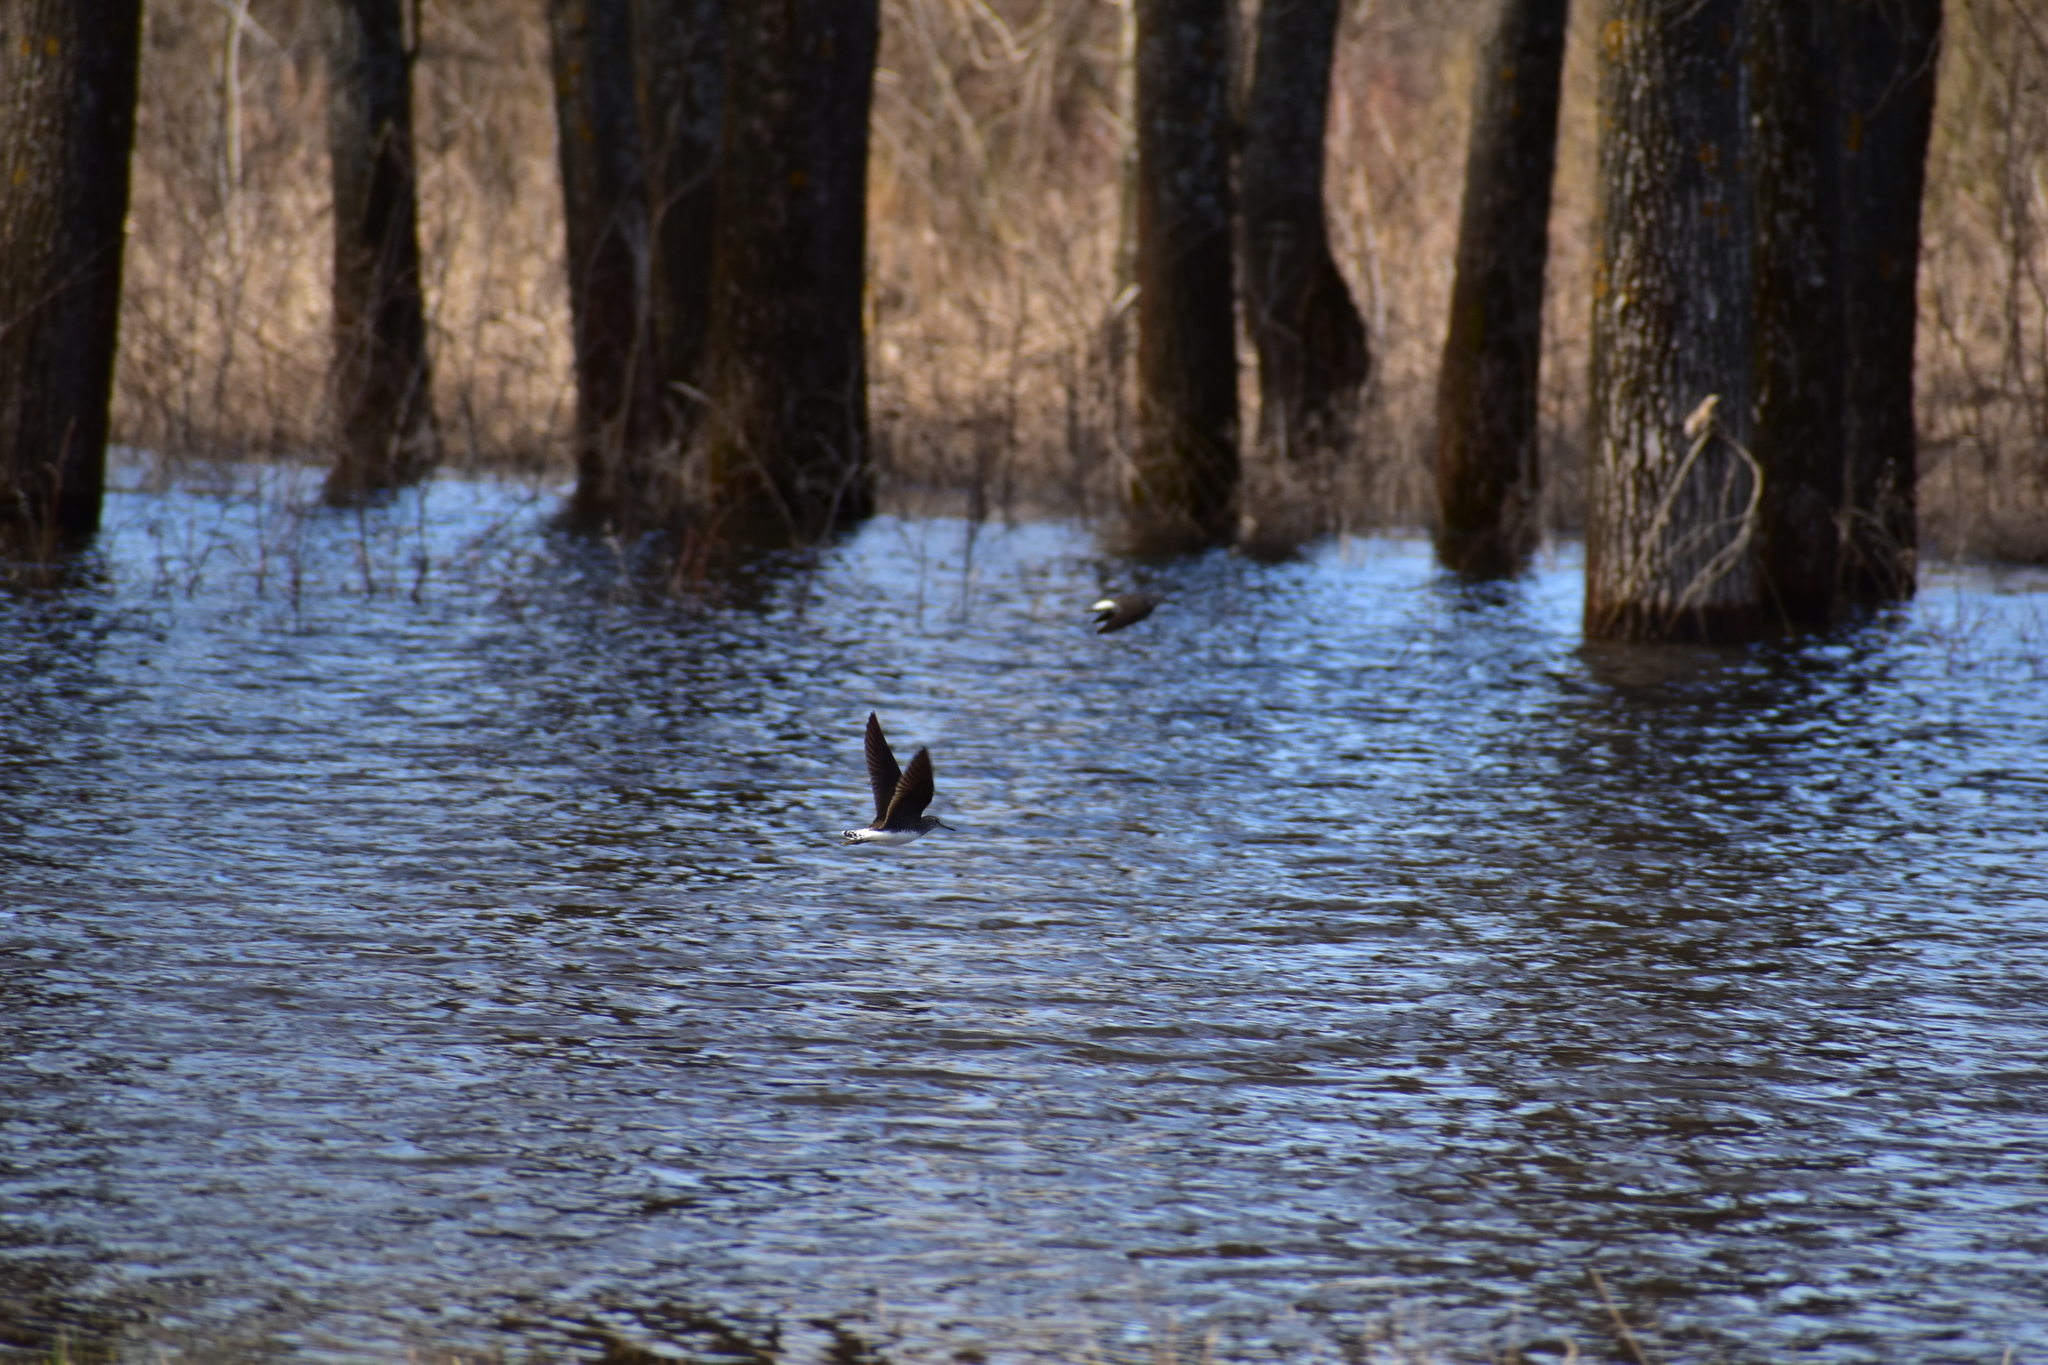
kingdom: Animalia
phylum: Chordata
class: Aves
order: Charadriiformes
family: Scolopacidae
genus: Tringa
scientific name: Tringa ochropus
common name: Green sandpiper
